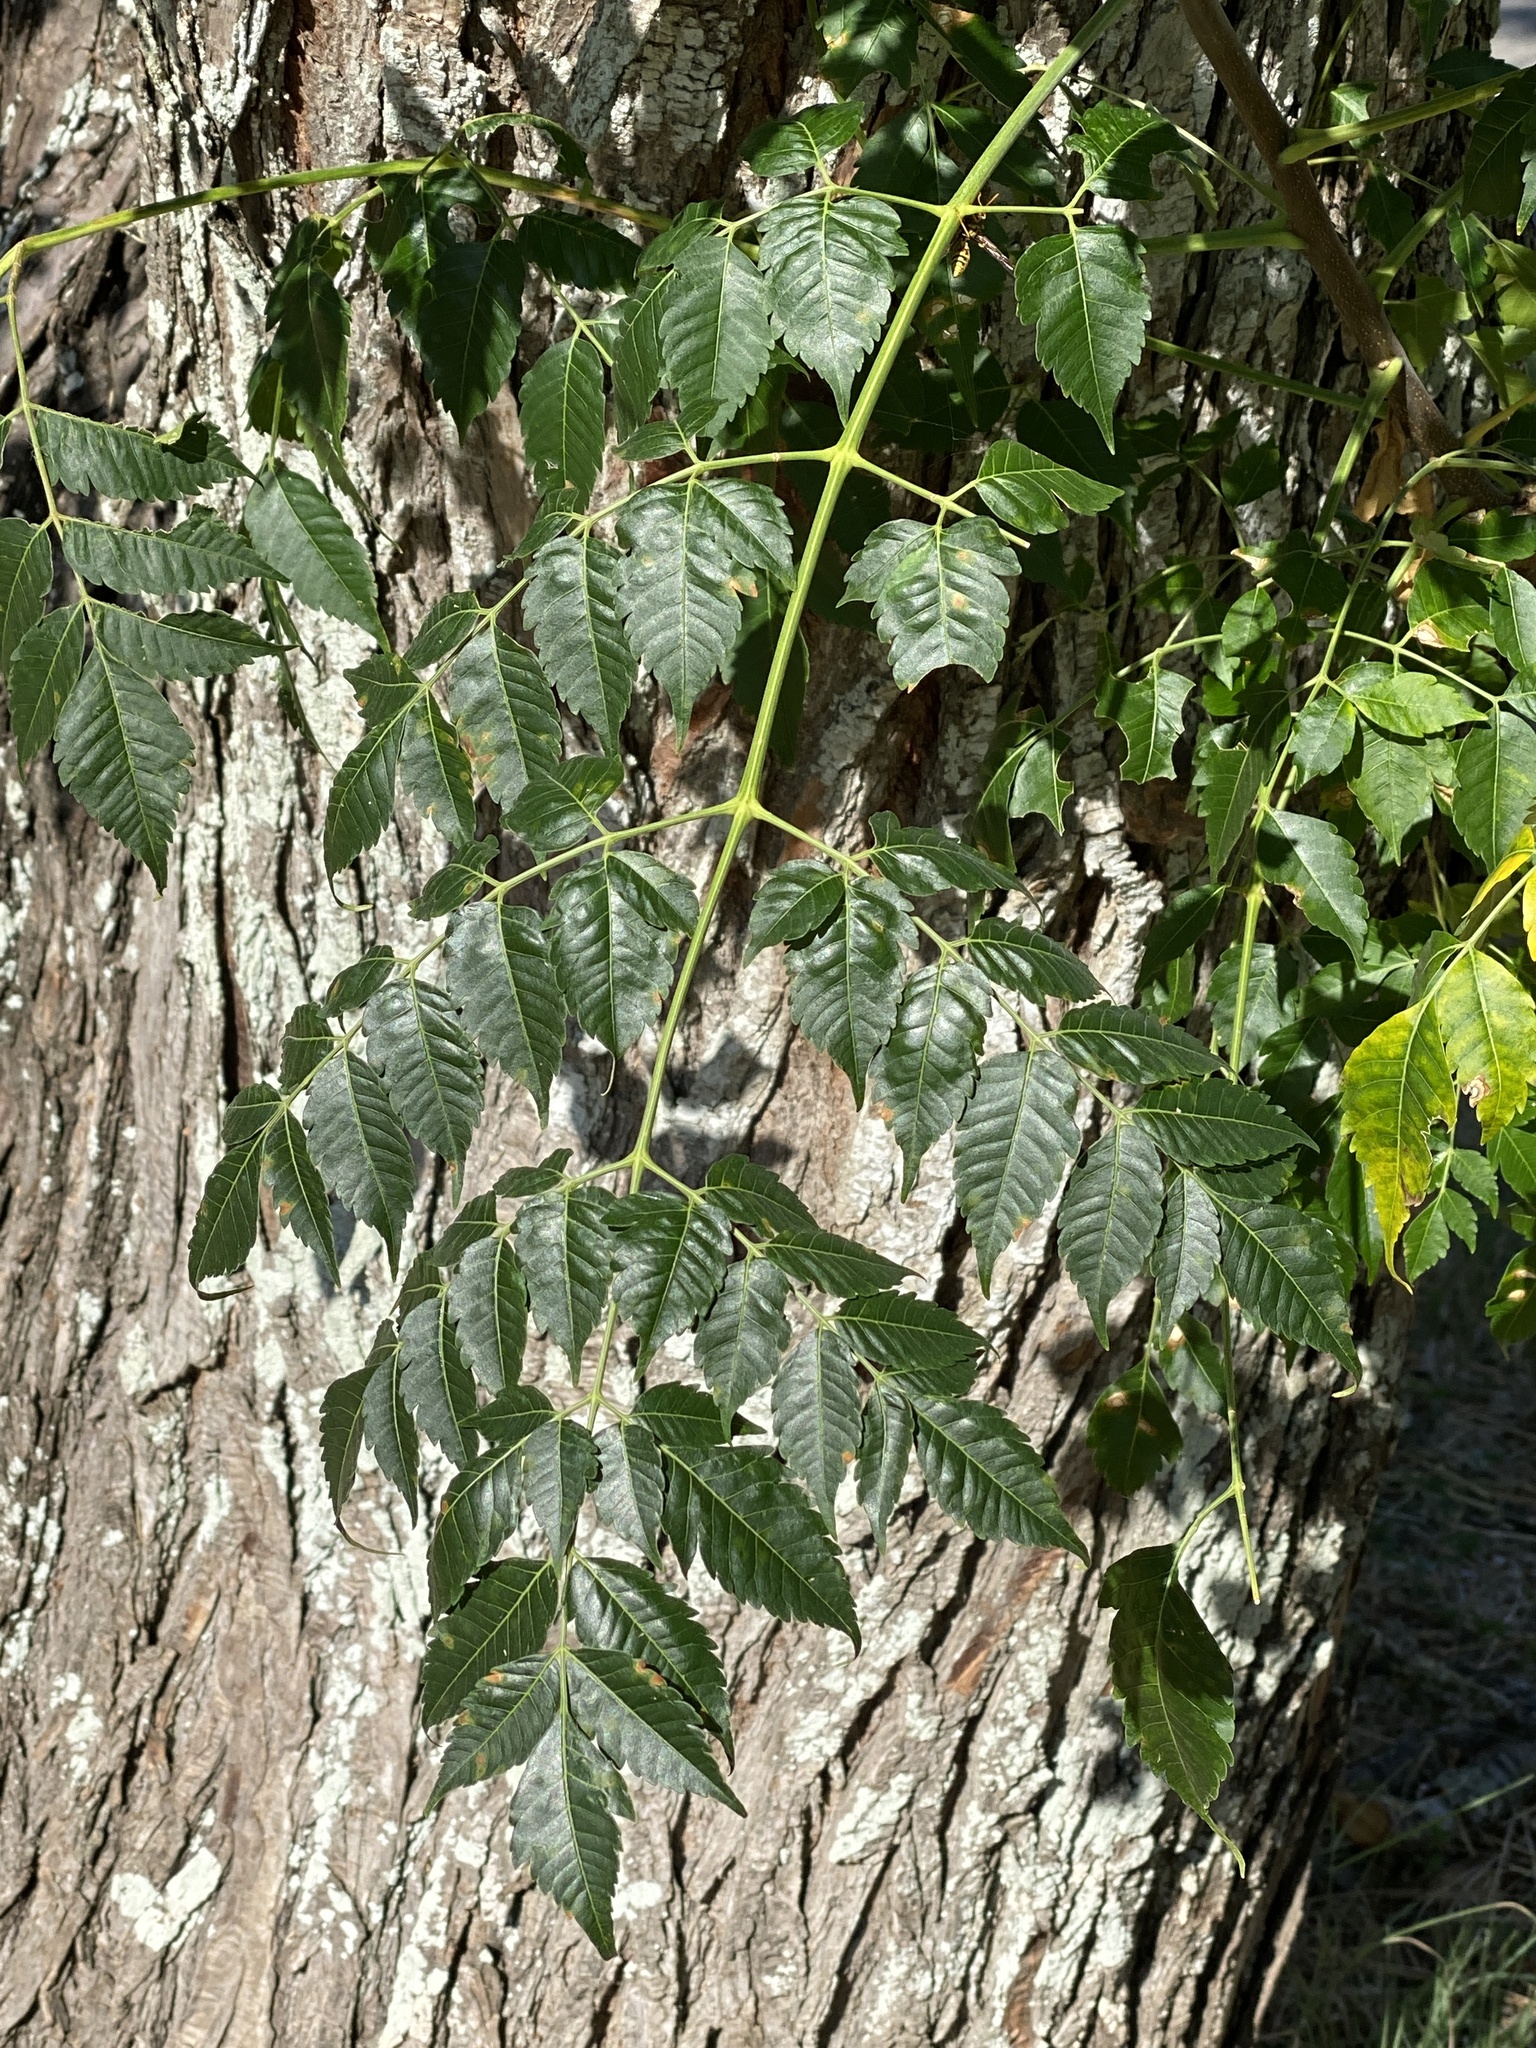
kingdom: Plantae
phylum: Tracheophyta
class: Magnoliopsida
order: Sapindales
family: Meliaceae
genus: Melia
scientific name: Melia azedarach
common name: Chinaberrytree
